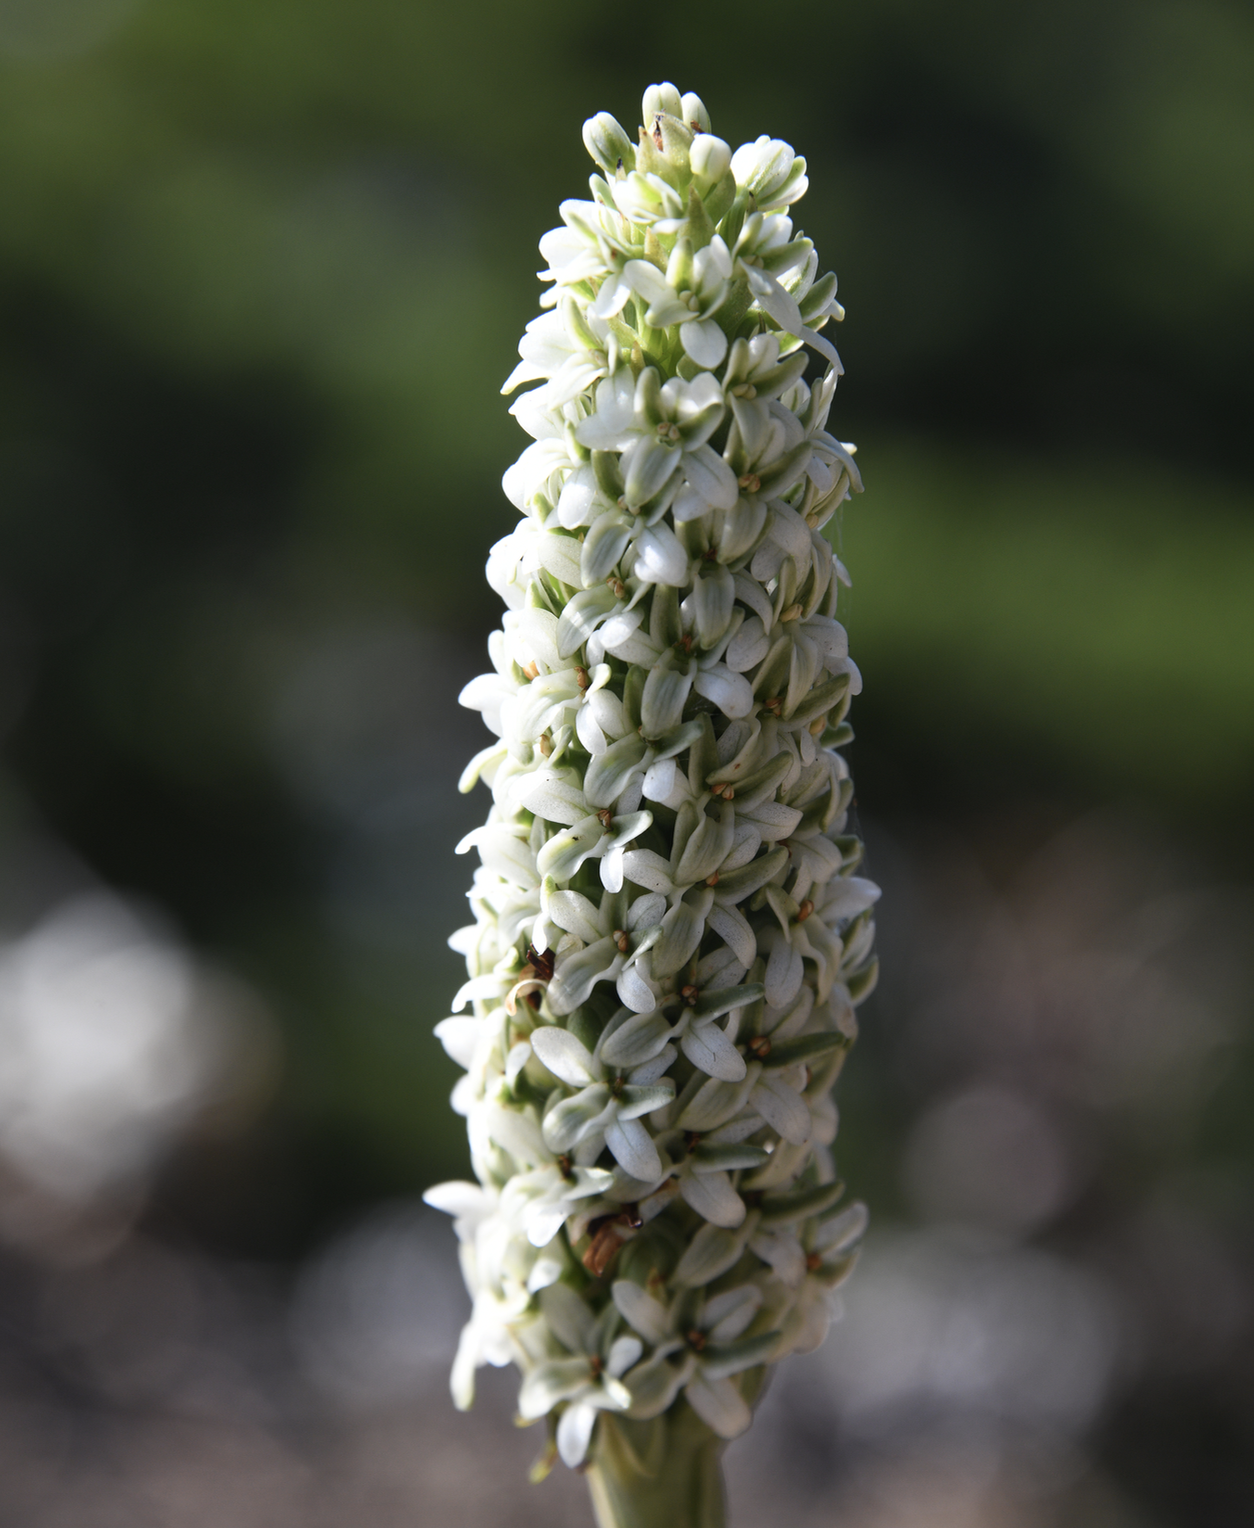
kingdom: Plantae
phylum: Tracheophyta
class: Liliopsida
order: Asparagales
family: Orchidaceae
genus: Platanthera
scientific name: Platanthera elegans
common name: Coast piperia
